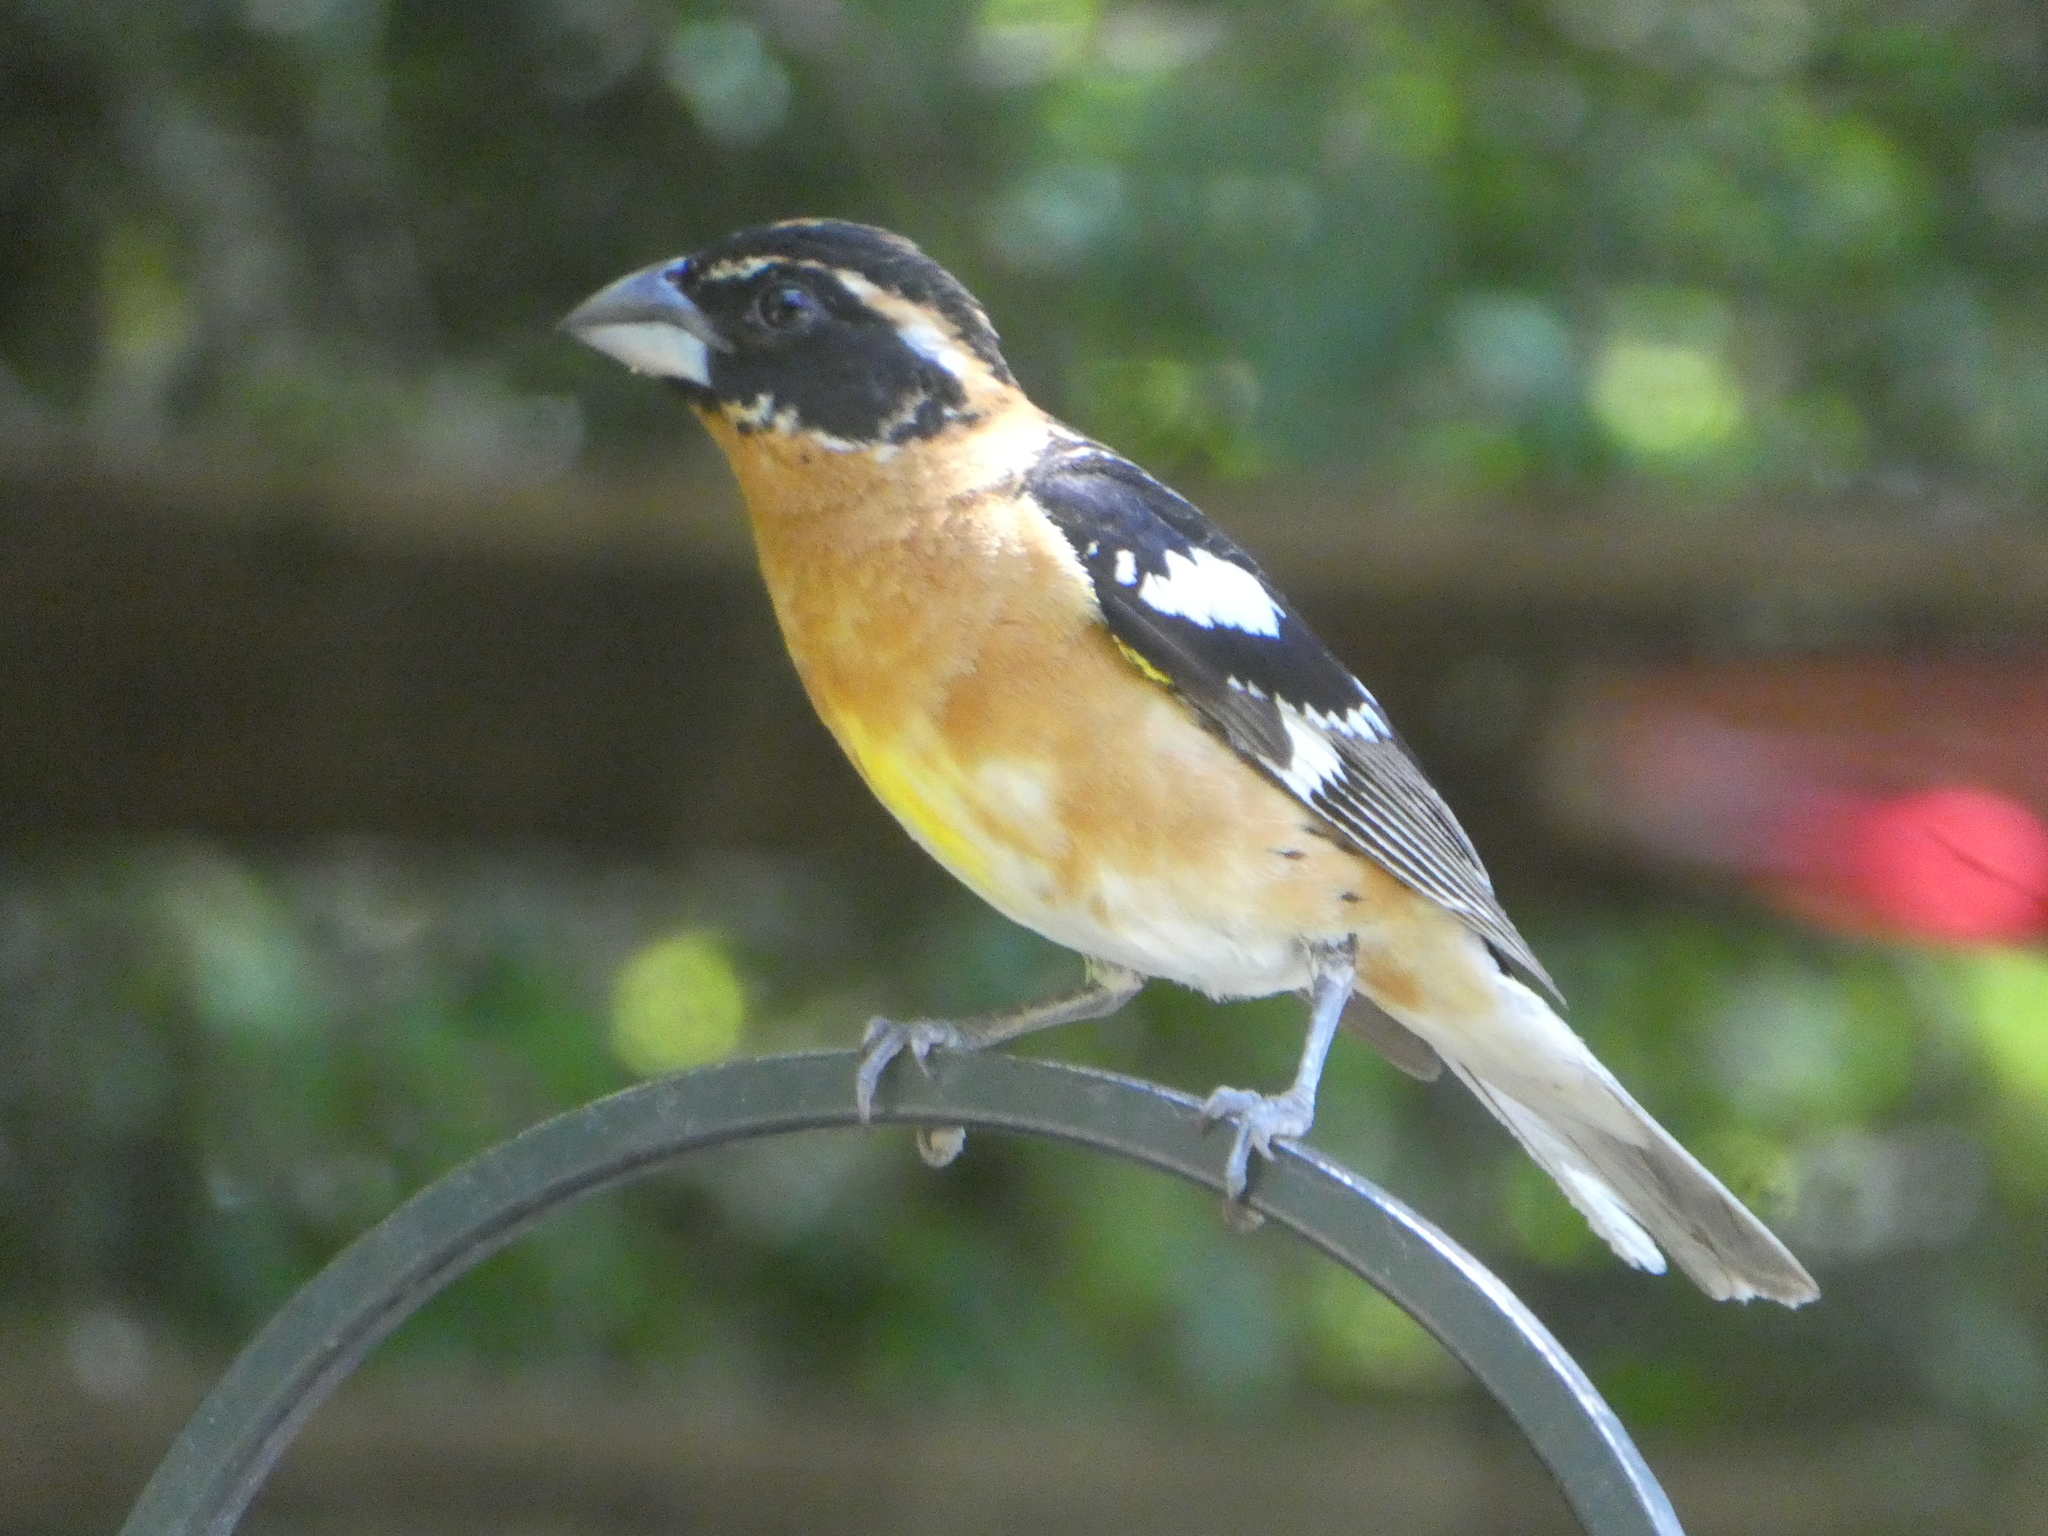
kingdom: Animalia
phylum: Chordata
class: Aves
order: Passeriformes
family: Cardinalidae
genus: Pheucticus
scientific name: Pheucticus melanocephalus
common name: Black-headed grosbeak
